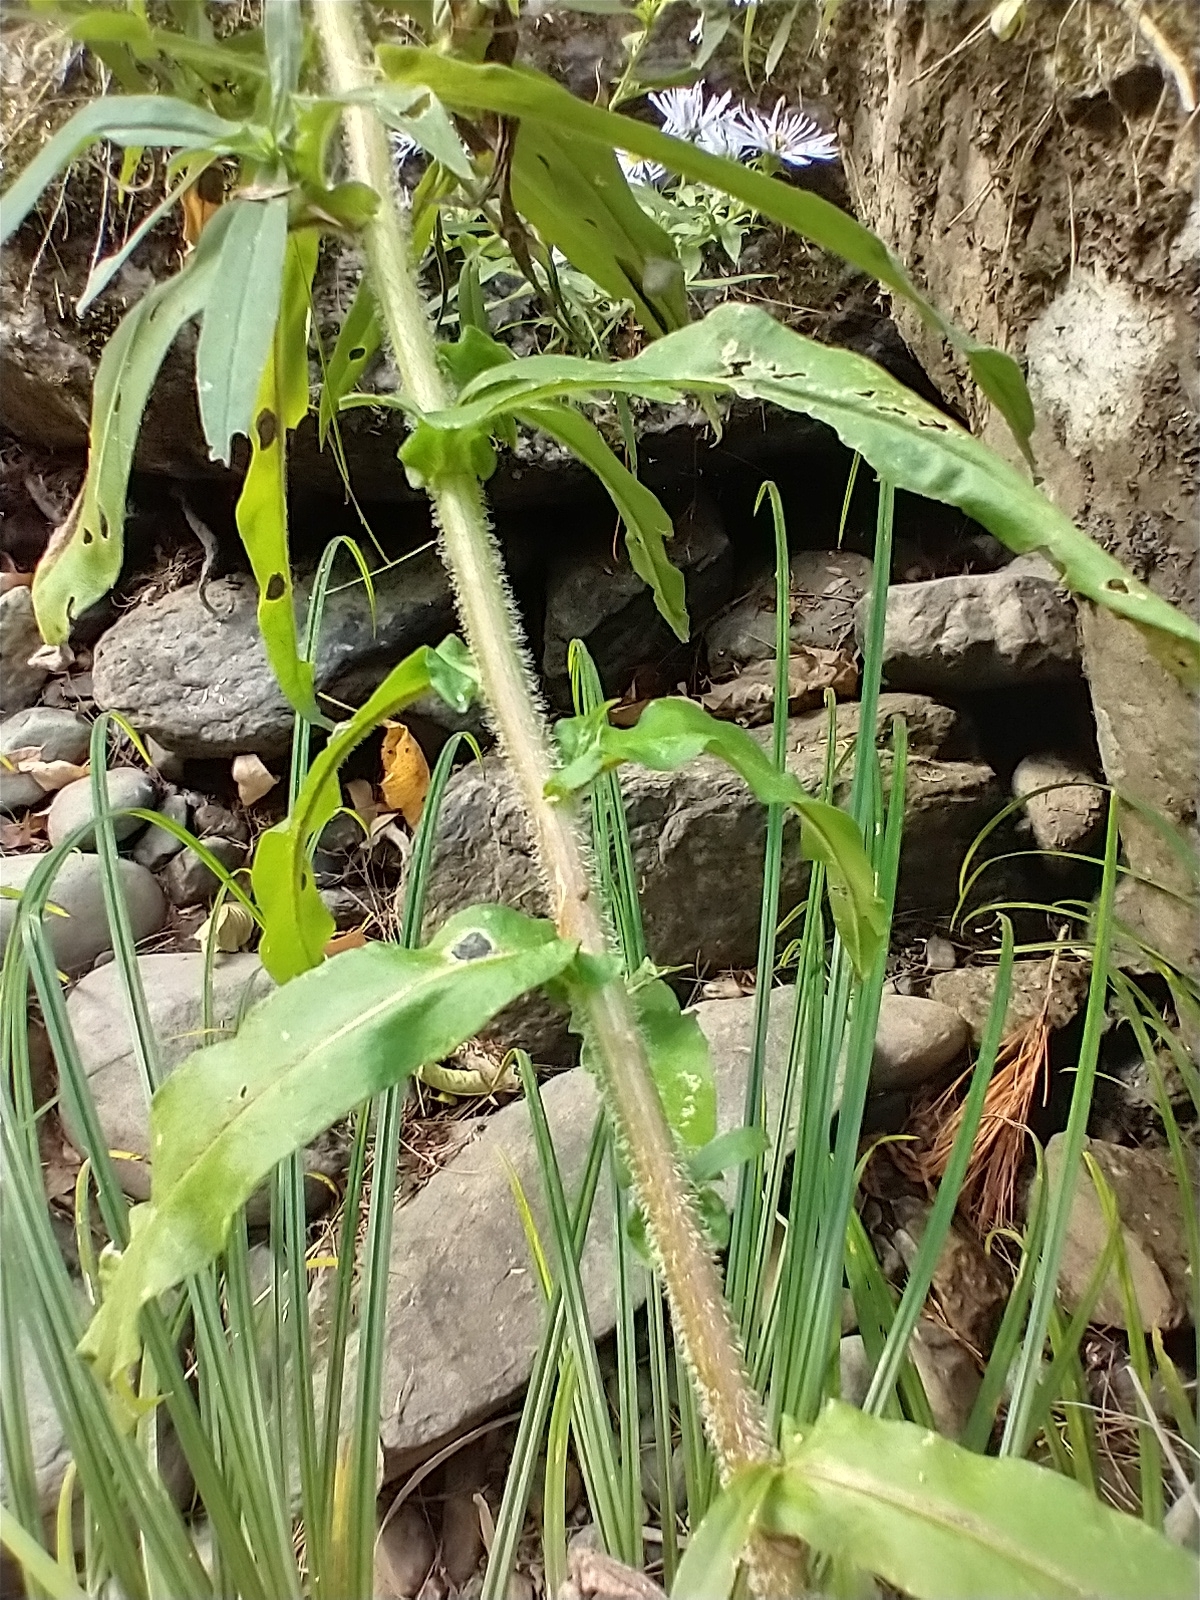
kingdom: Plantae
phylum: Tracheophyta
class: Magnoliopsida
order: Asterales
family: Asteraceae
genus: Symphyotrichum
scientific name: Symphyotrichum puniceum
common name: Bog aster
